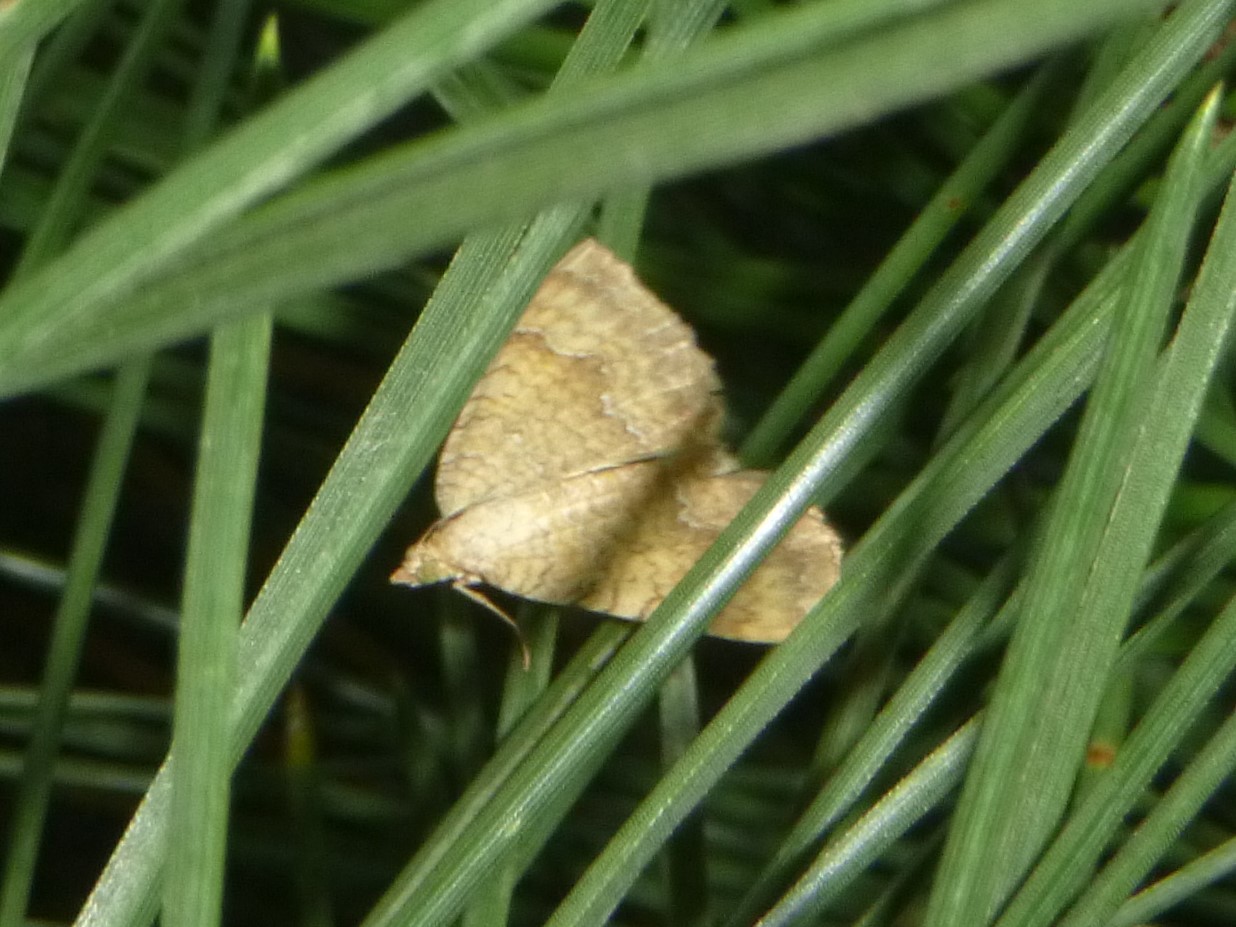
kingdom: Animalia
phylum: Arthropoda
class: Insecta
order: Lepidoptera
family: Geometridae
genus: Camptogramma
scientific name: Camptogramma bilineata
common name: Yellow shell
